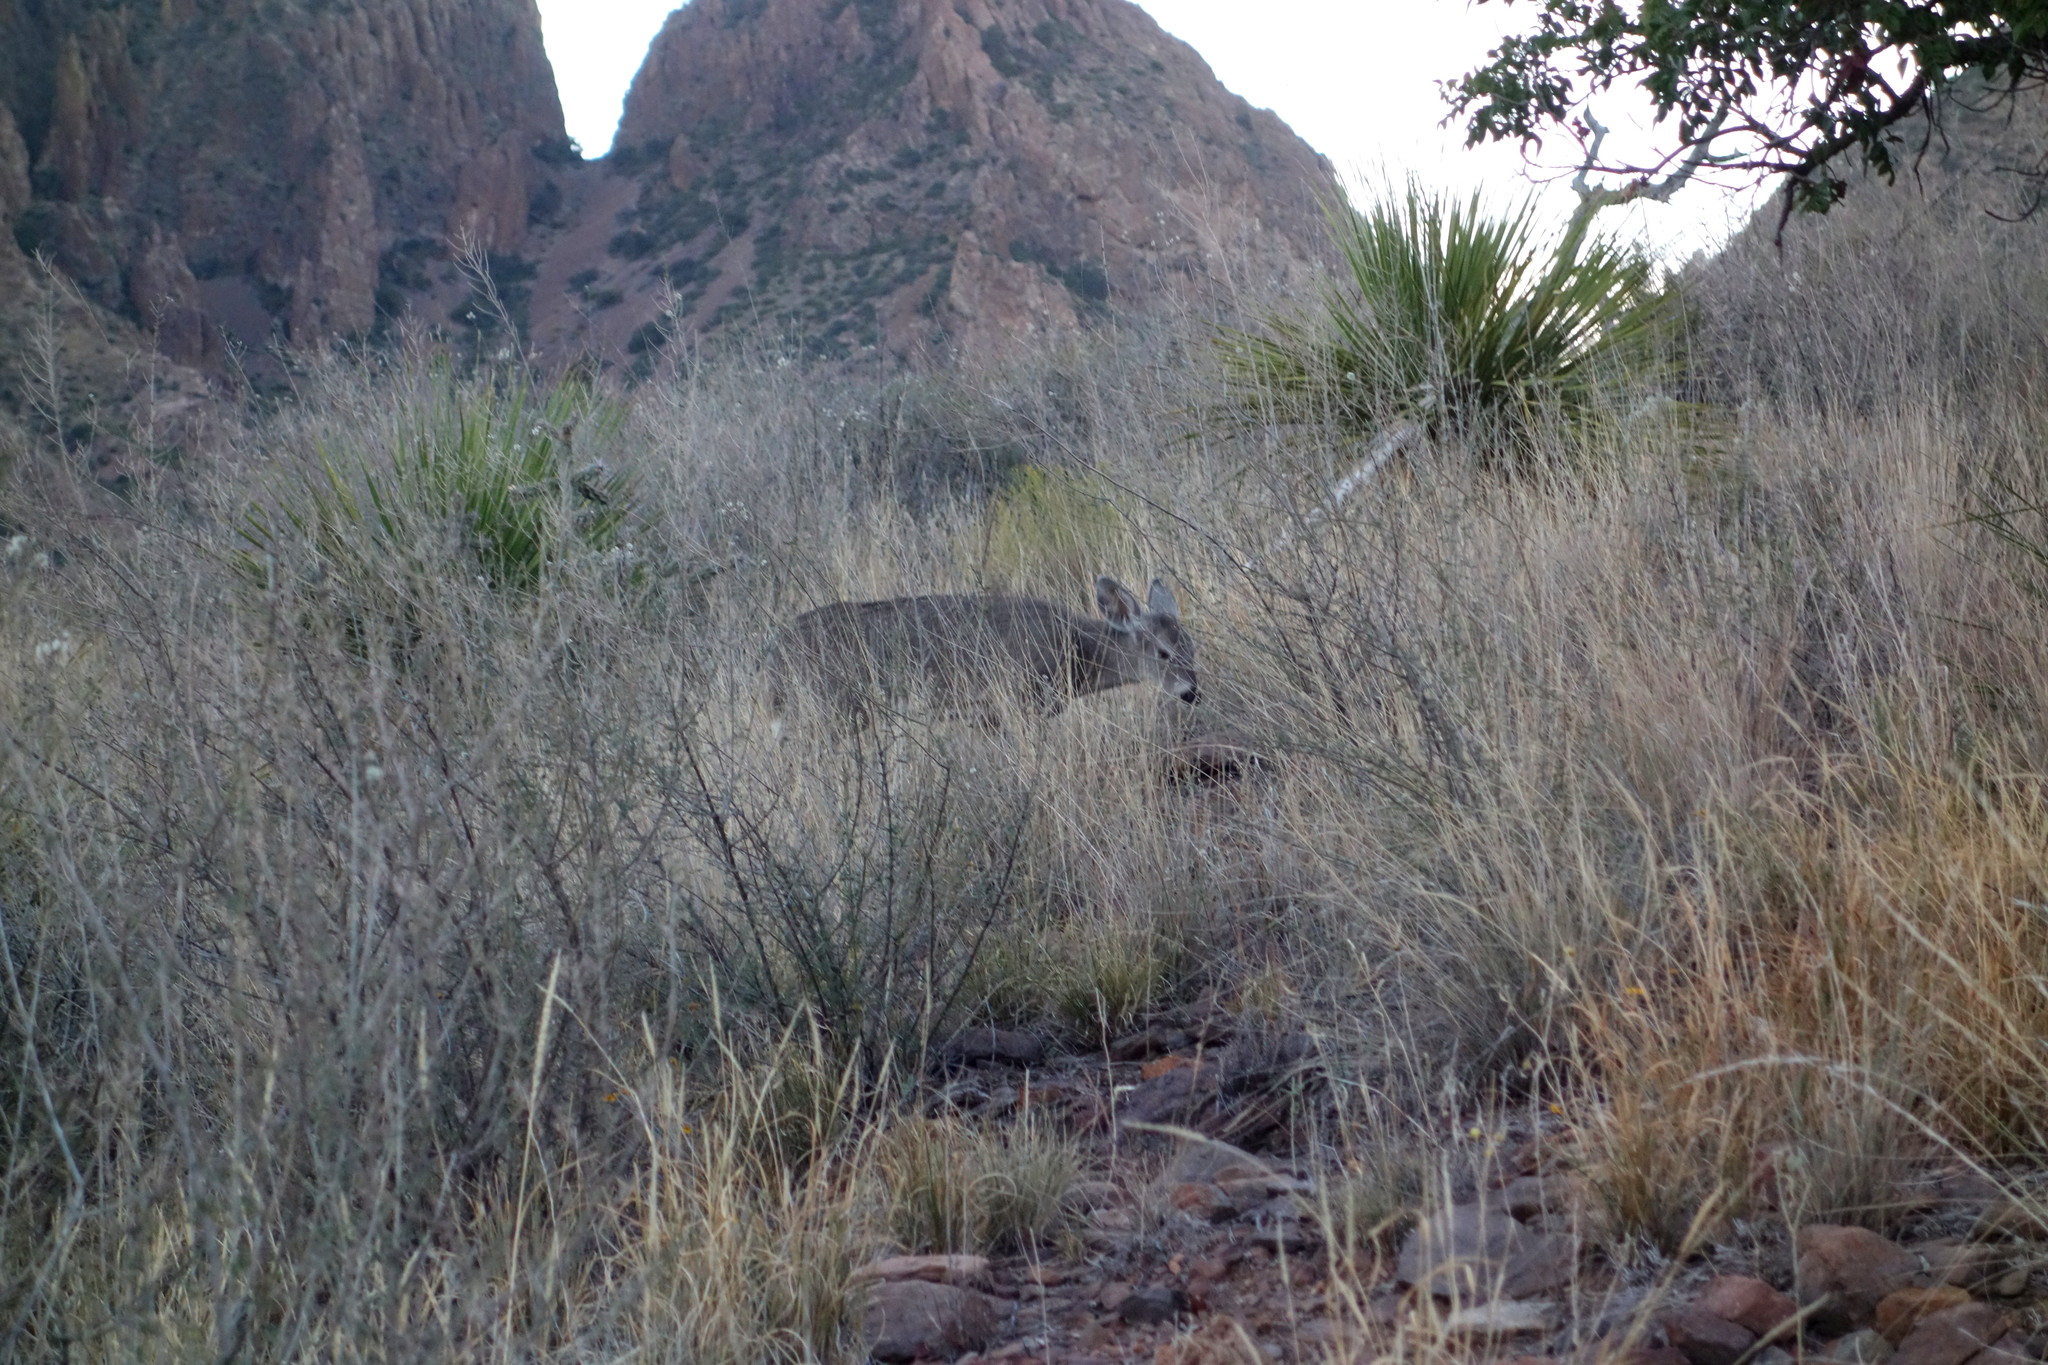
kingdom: Animalia
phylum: Chordata
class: Mammalia
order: Artiodactyla
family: Cervidae
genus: Odocoileus
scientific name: Odocoileus virginianus
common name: White-tailed deer
